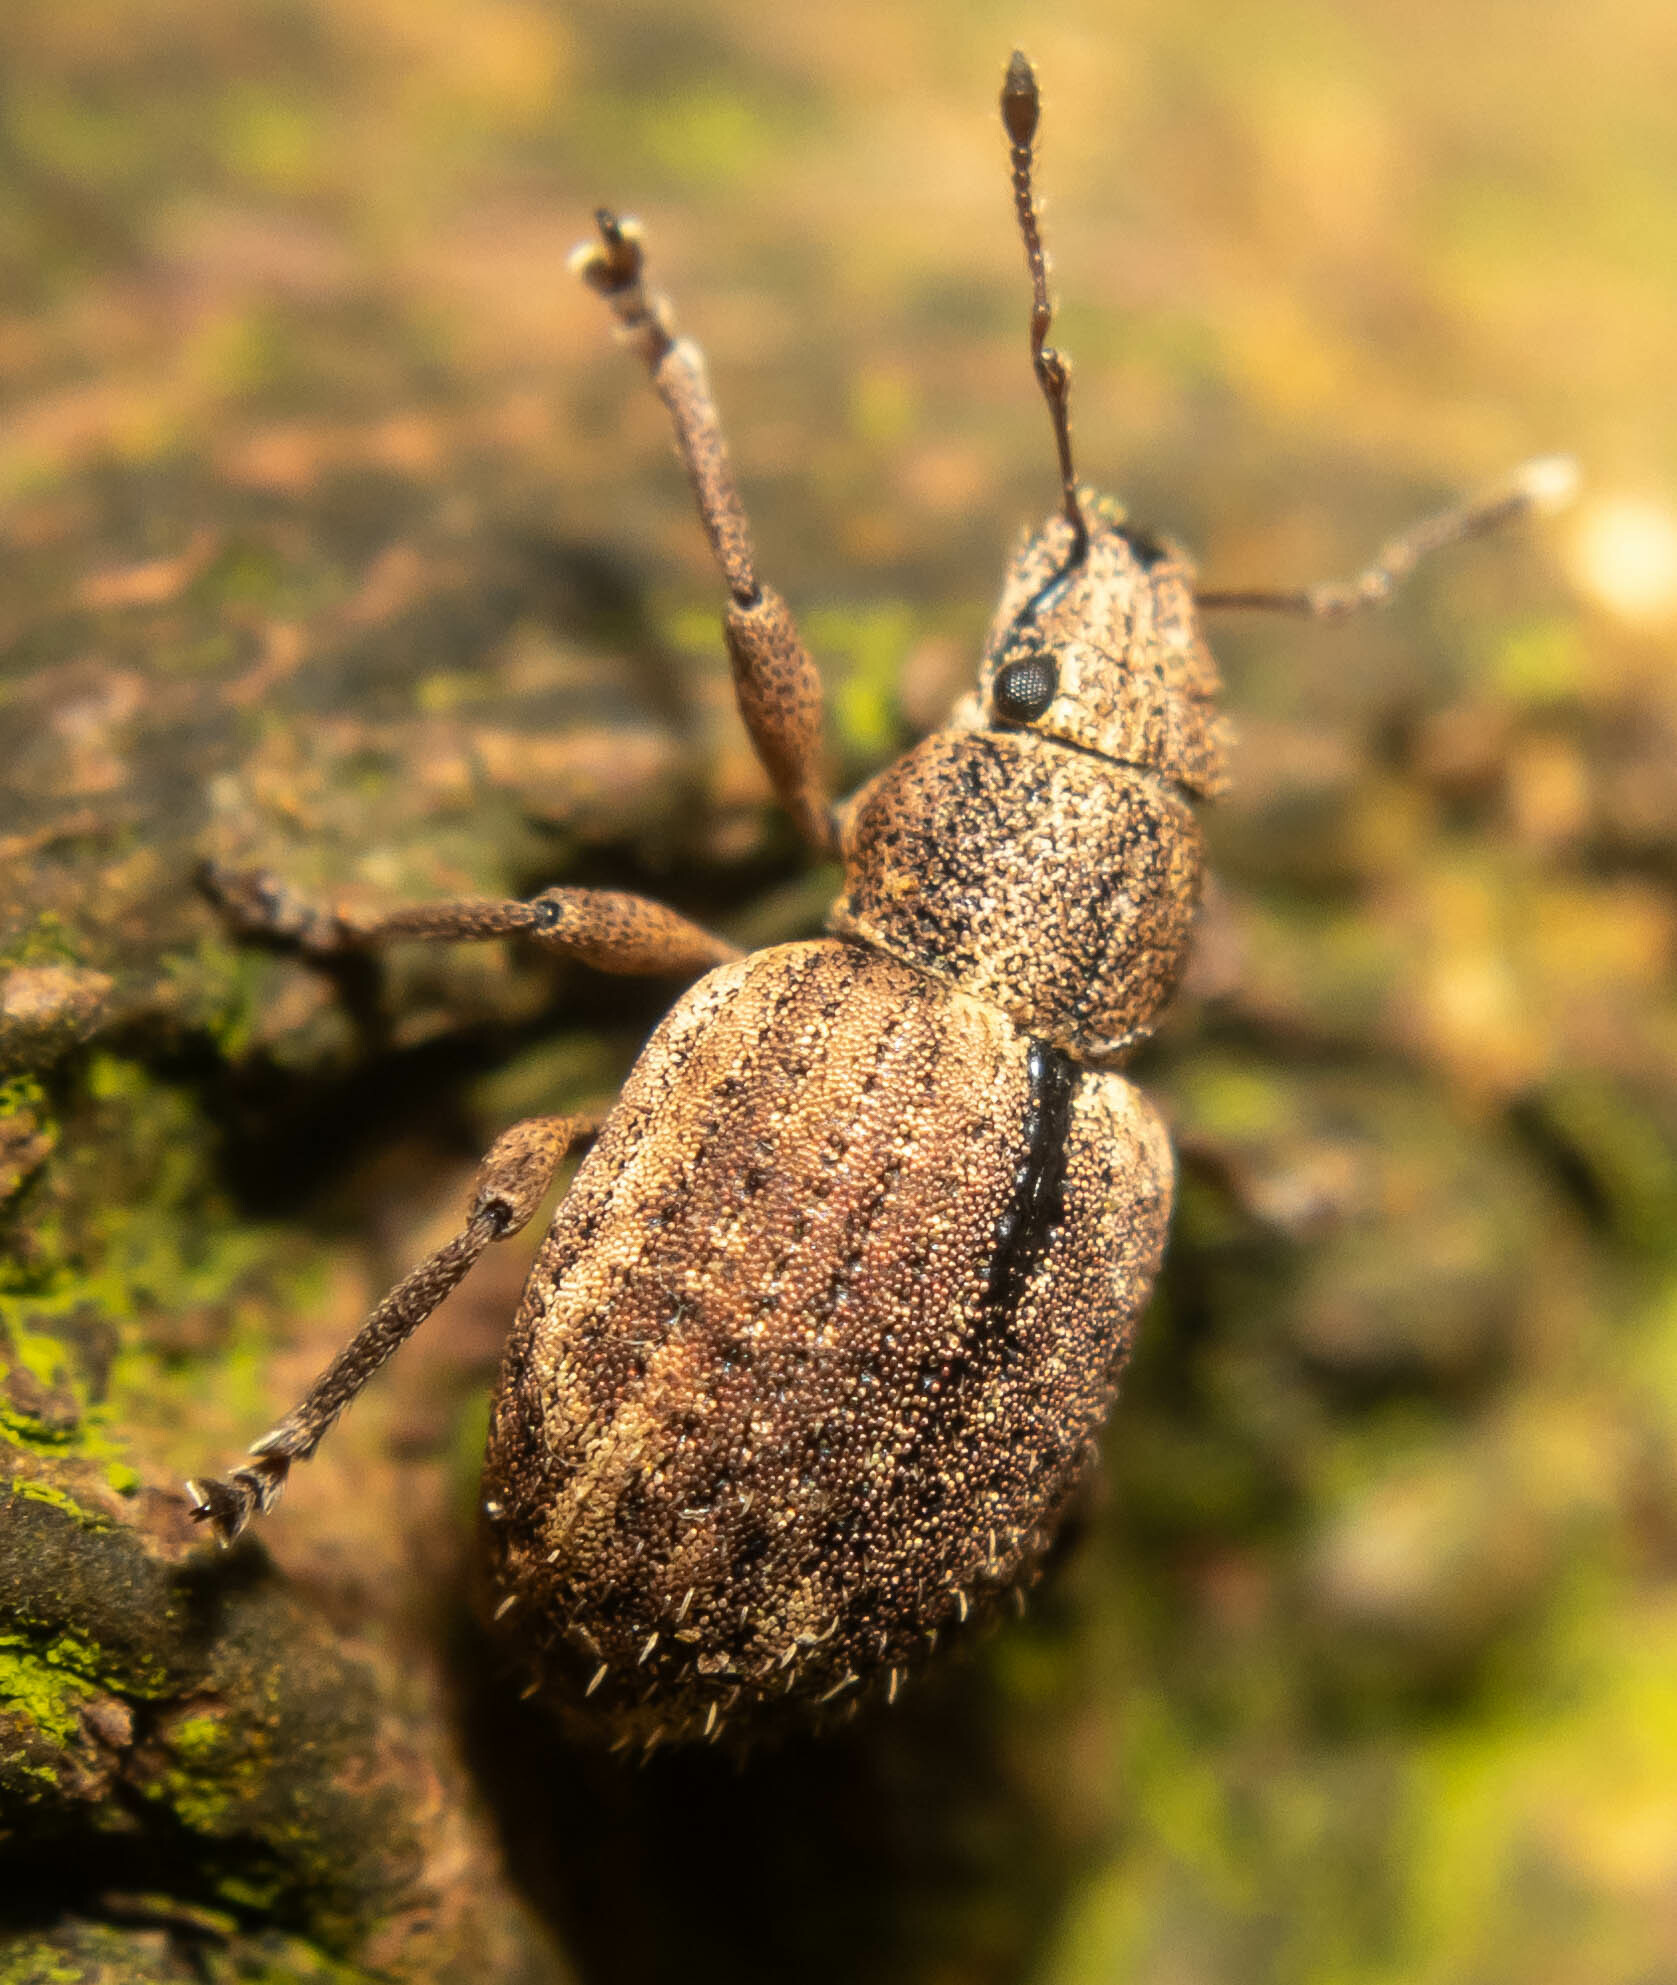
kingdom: Animalia
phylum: Arthropoda
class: Insecta
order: Coleoptera
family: Curculionidae
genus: Strophosoma
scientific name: Strophosoma melanogrammum
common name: Weevil
